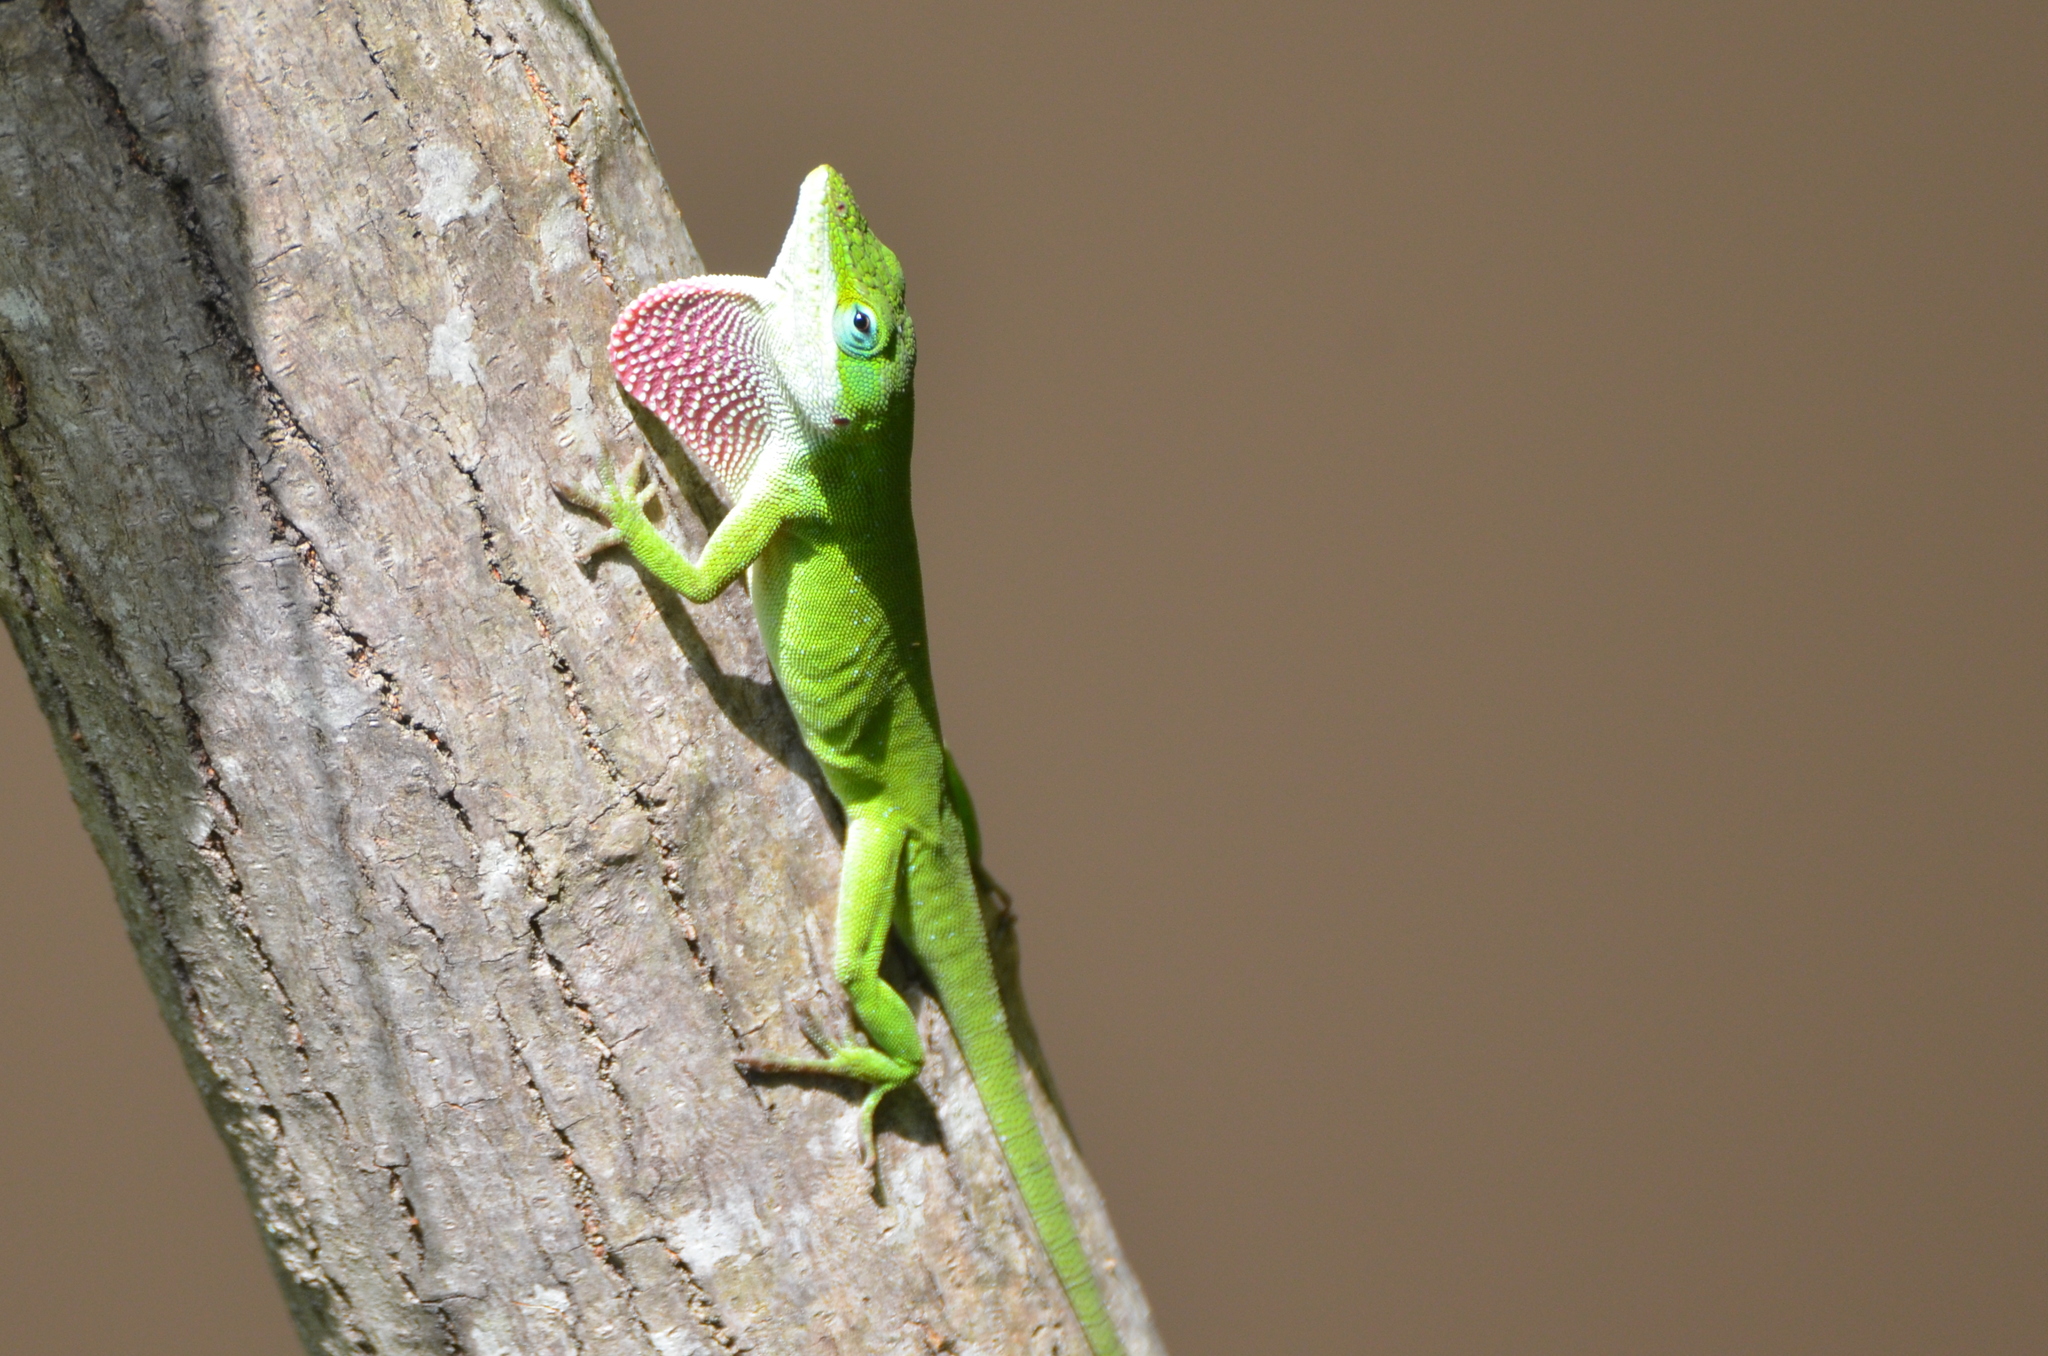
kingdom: Animalia
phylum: Chordata
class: Squamata
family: Dactyloidae
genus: Anolis
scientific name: Anolis carolinensis
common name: Green anole
